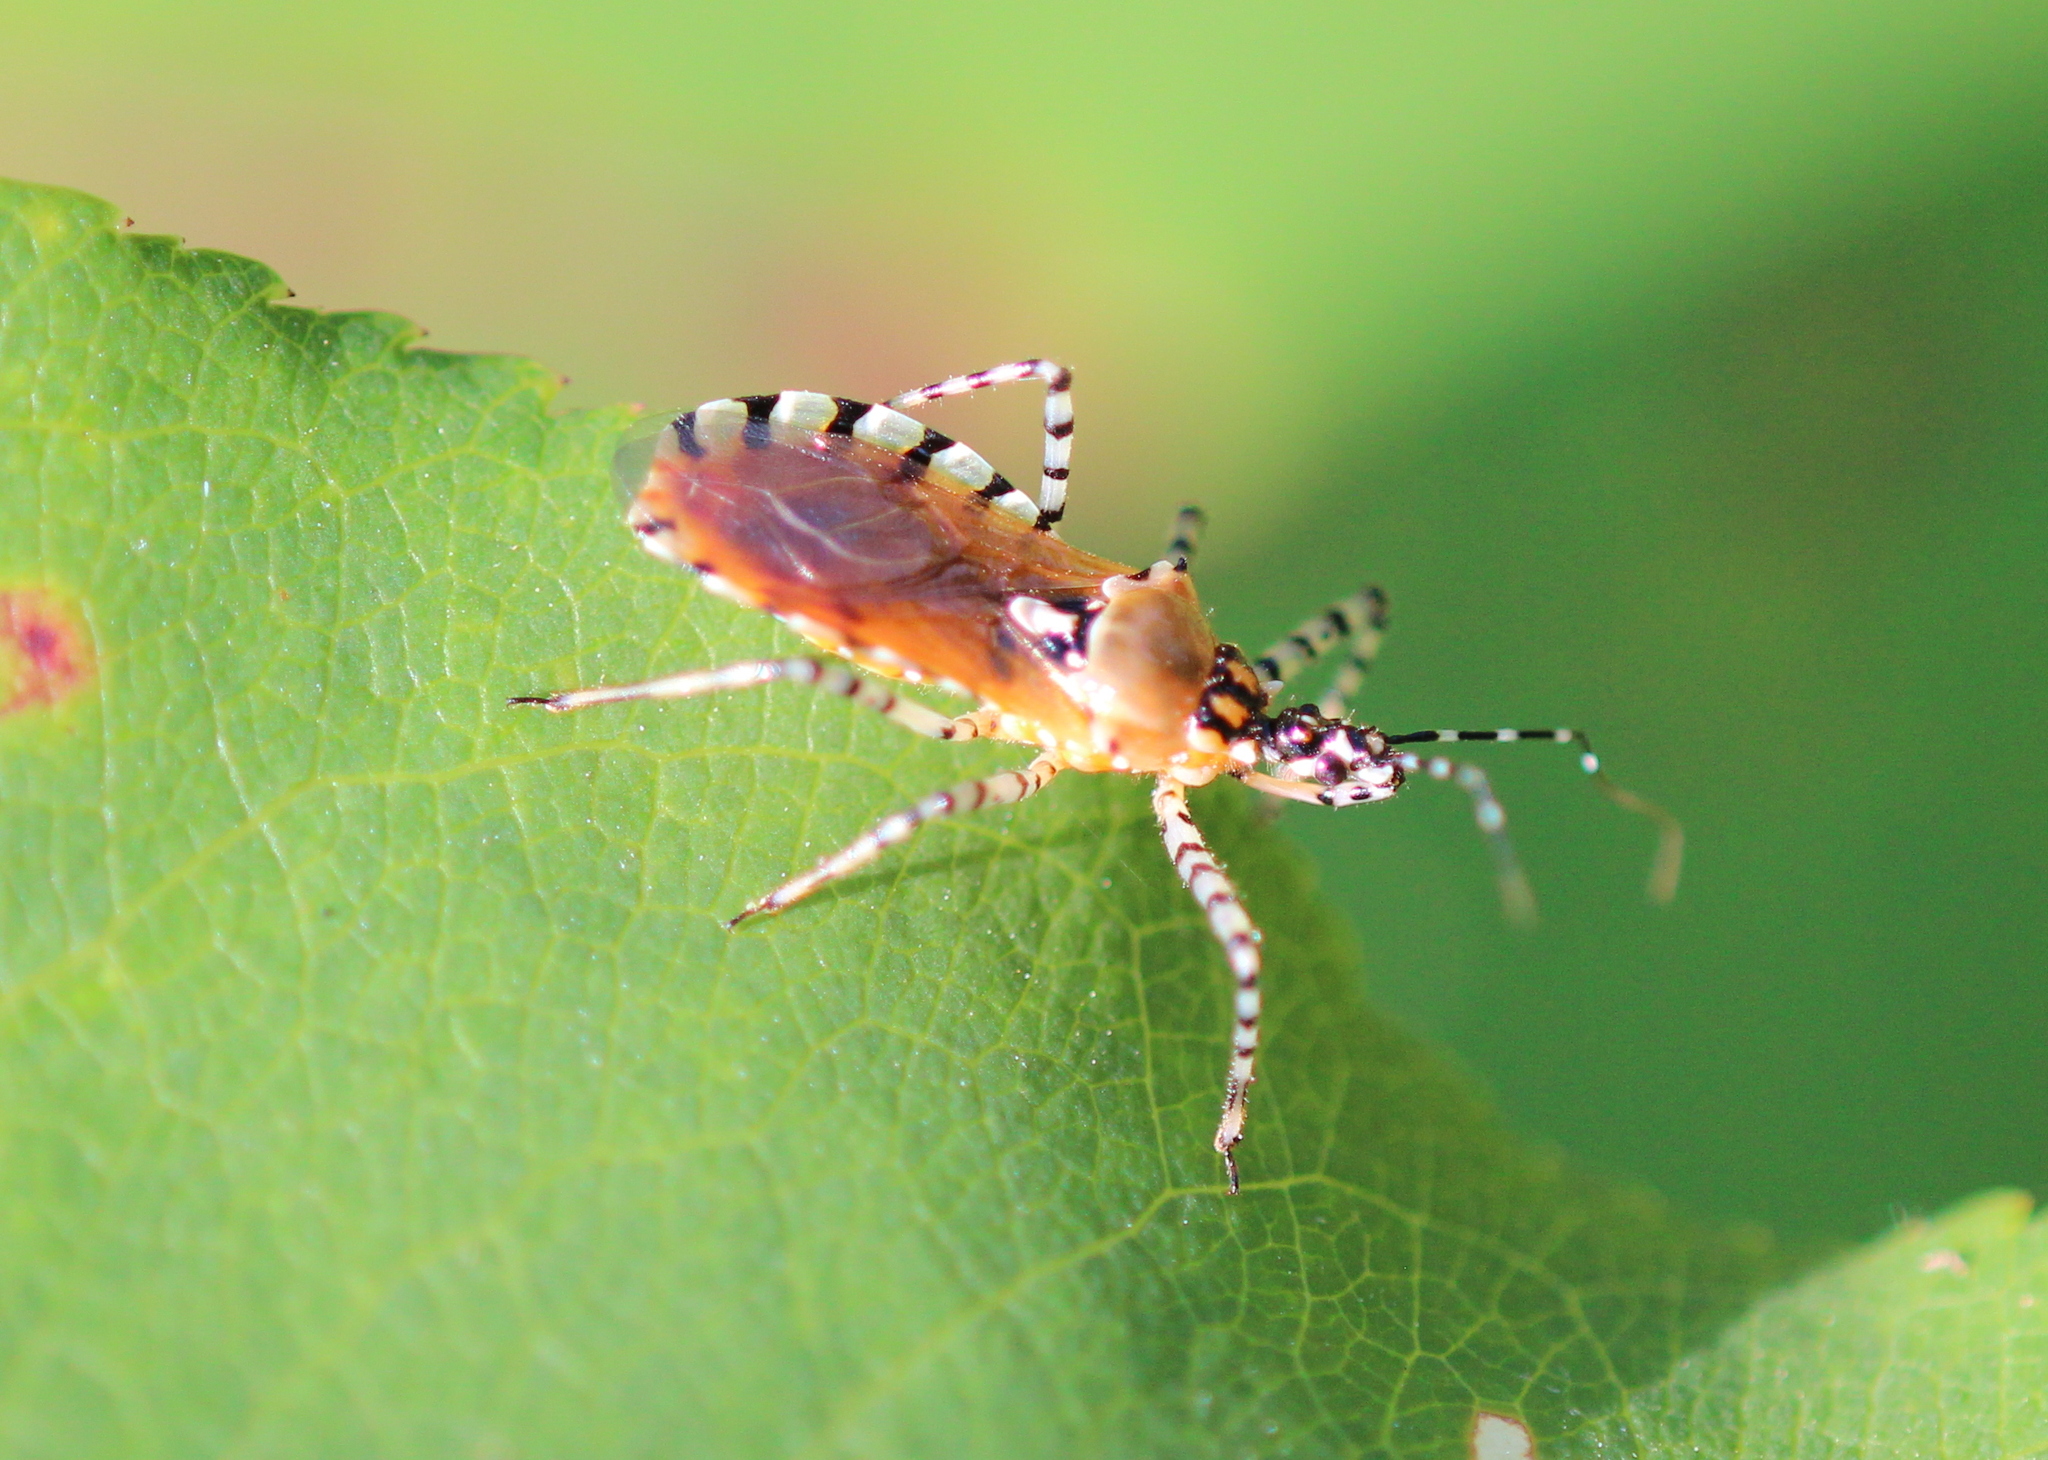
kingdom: Animalia
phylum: Arthropoda
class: Insecta
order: Hemiptera
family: Reduviidae
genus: Pselliopus
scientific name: Pselliopus cinctus
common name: Ringed assassin bug
